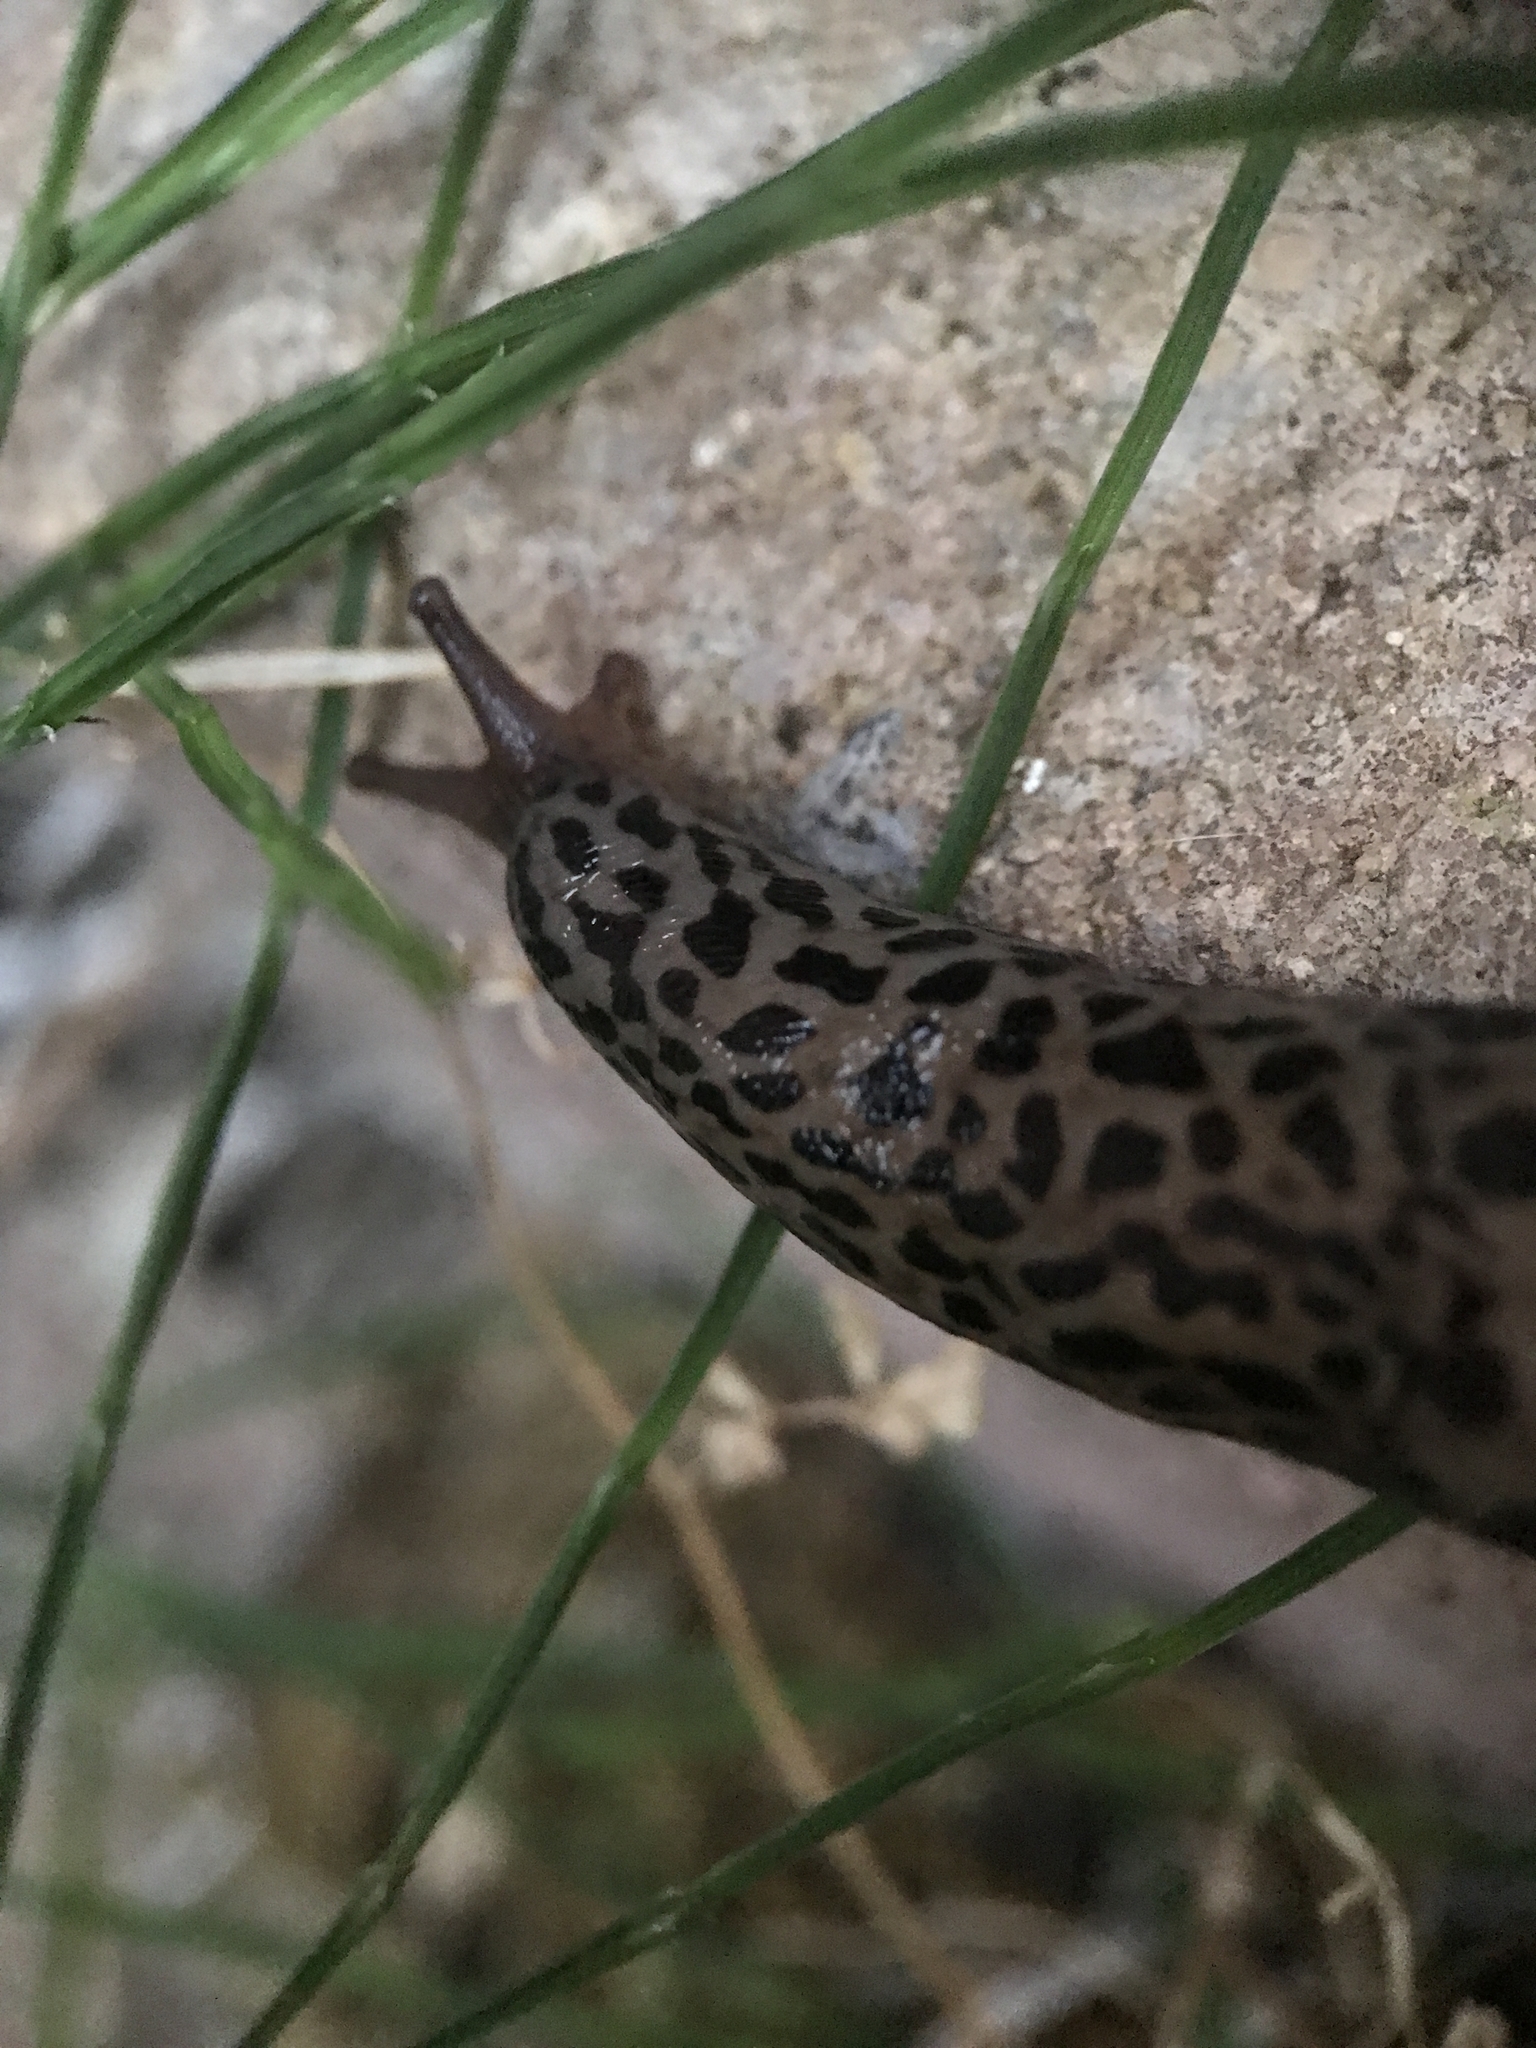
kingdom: Animalia
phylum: Mollusca
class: Gastropoda
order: Stylommatophora
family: Limacidae
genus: Limax
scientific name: Limax maximus
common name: Great grey slug
